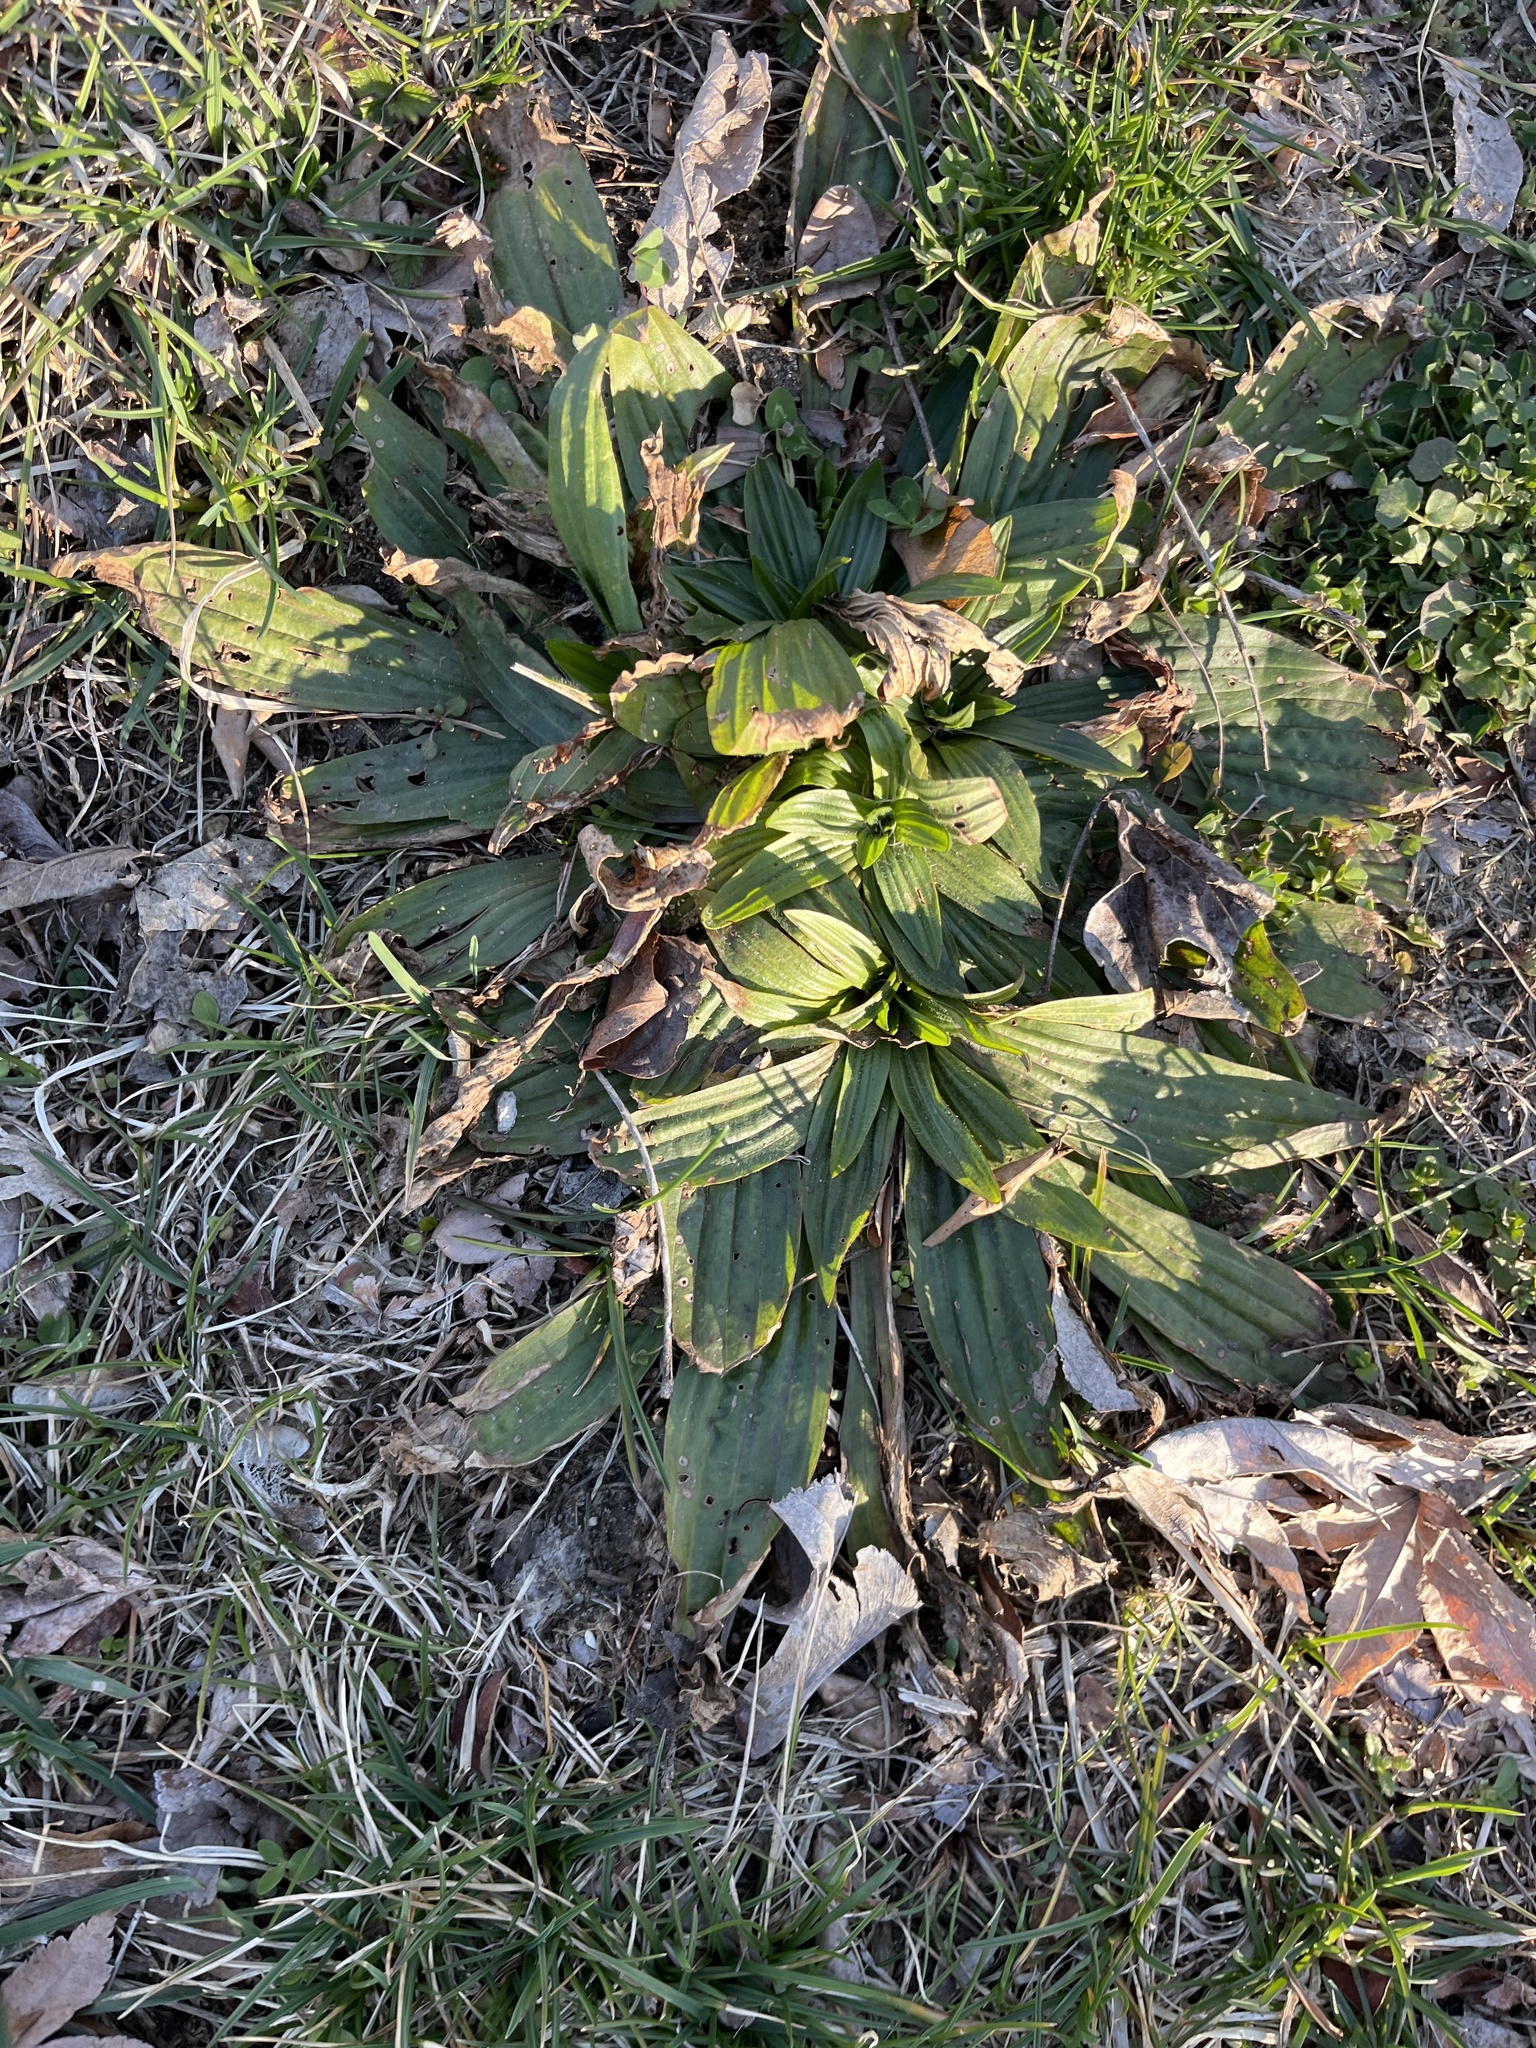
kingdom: Plantae
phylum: Tracheophyta
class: Magnoliopsida
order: Lamiales
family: Plantaginaceae
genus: Plantago
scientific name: Plantago lanceolata
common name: Ribwort plantain
